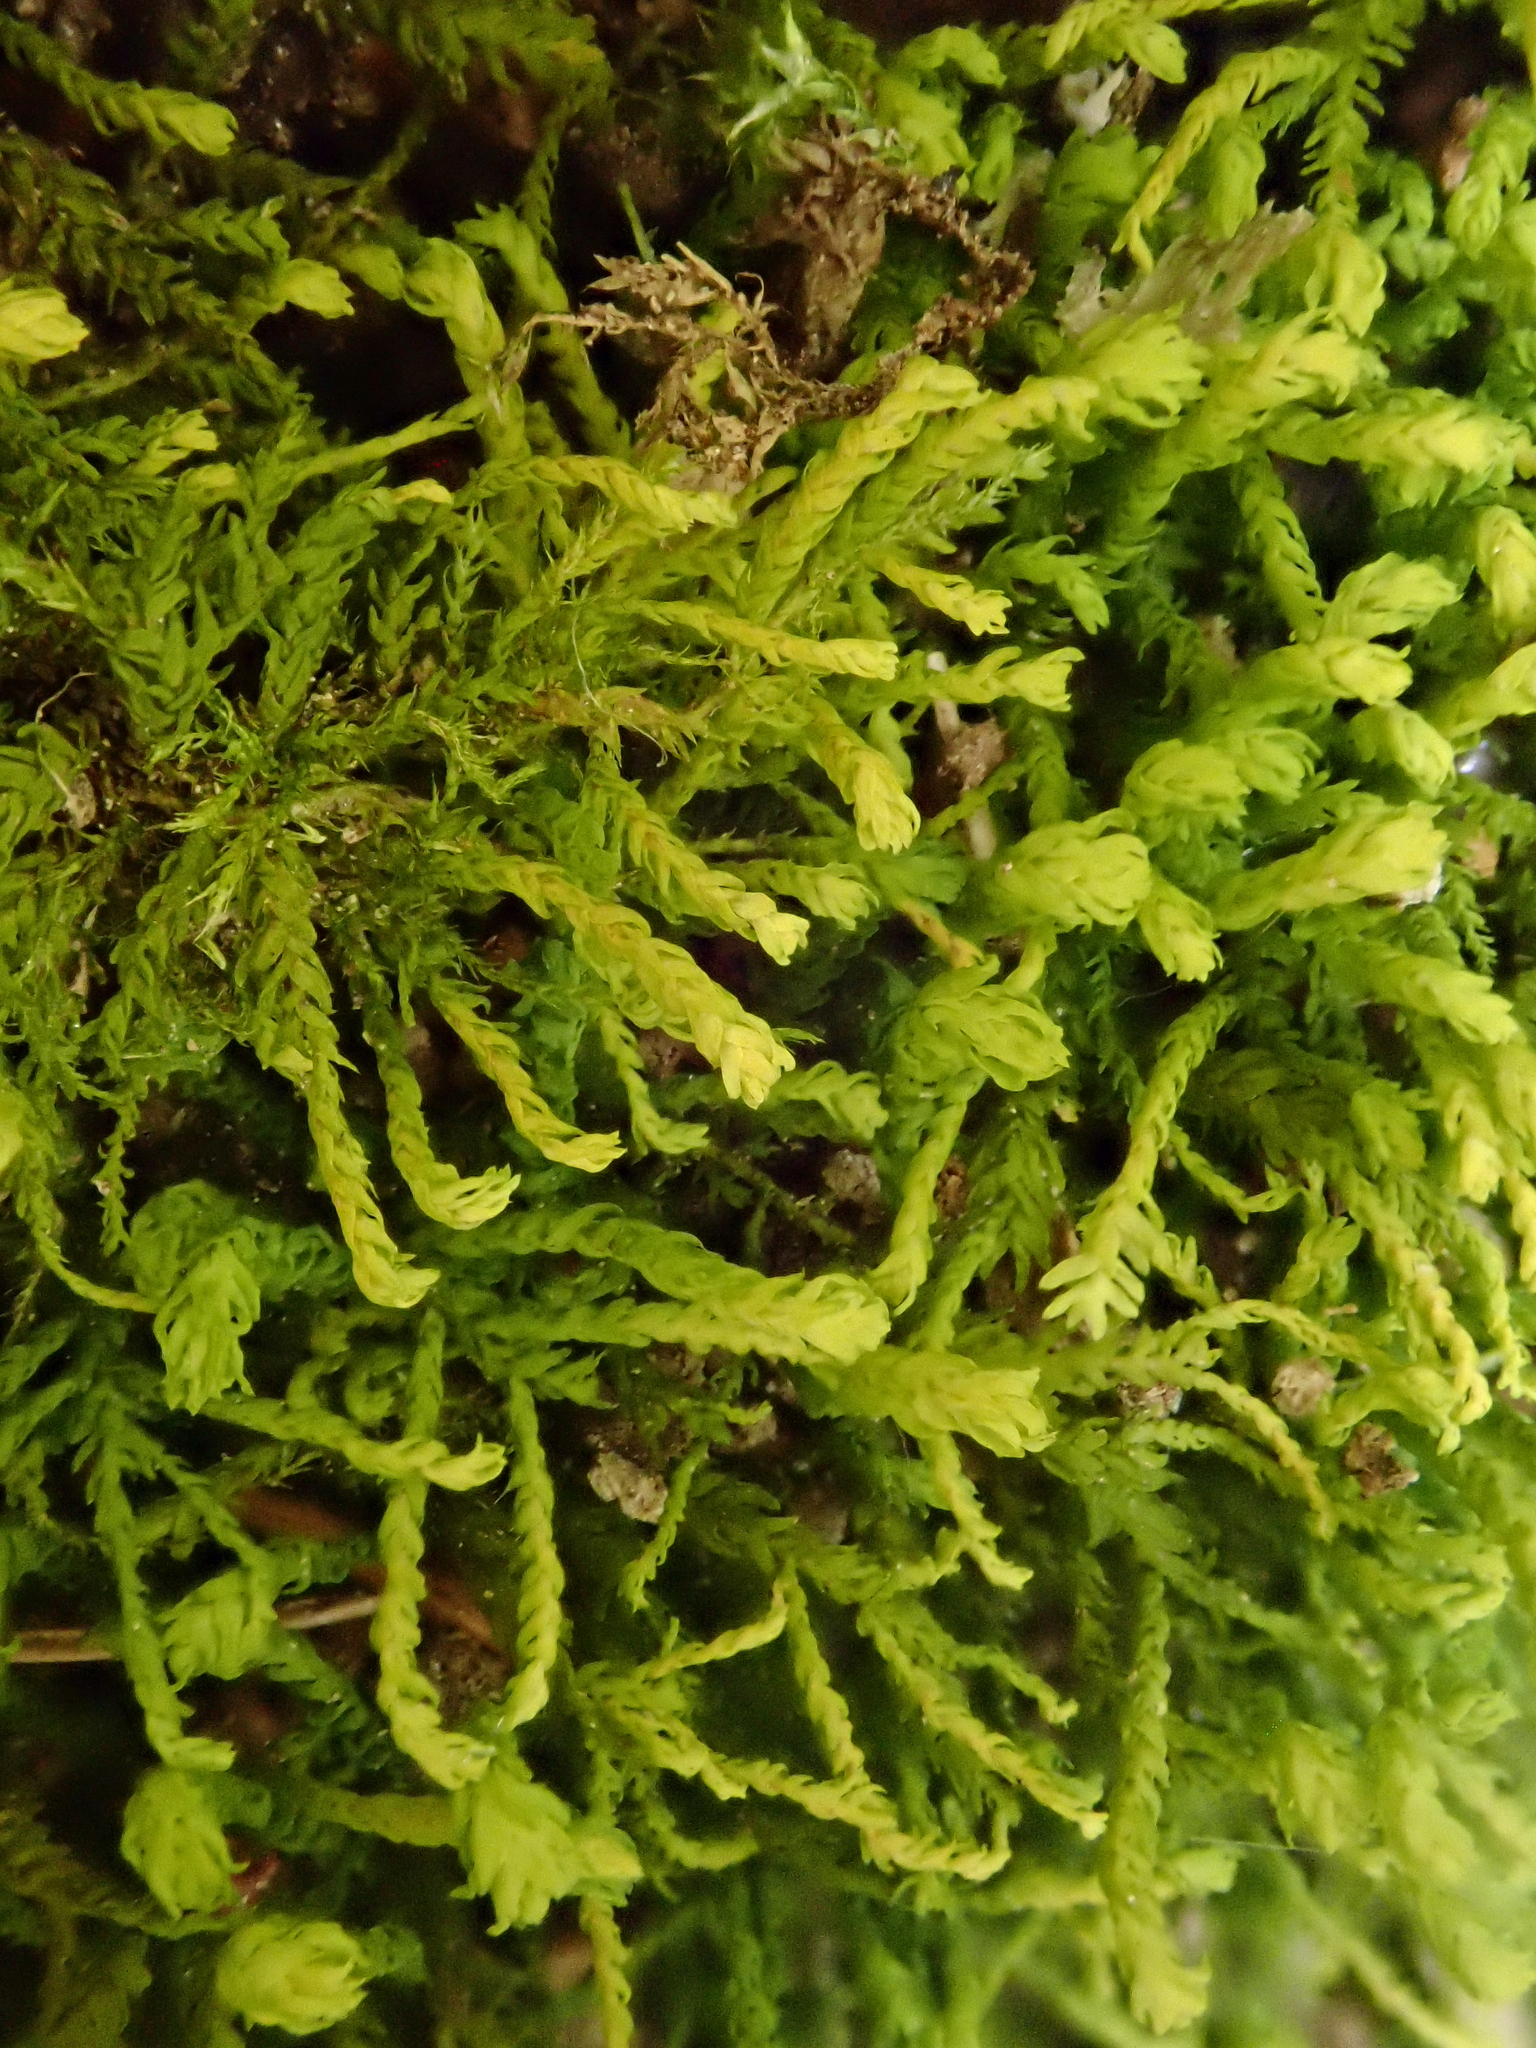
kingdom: Plantae
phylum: Bryophyta
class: Bryopsida
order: Hypnales
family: Anomodontaceae
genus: Anomodon
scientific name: Anomodon viticulosus
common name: Tall anomodon
